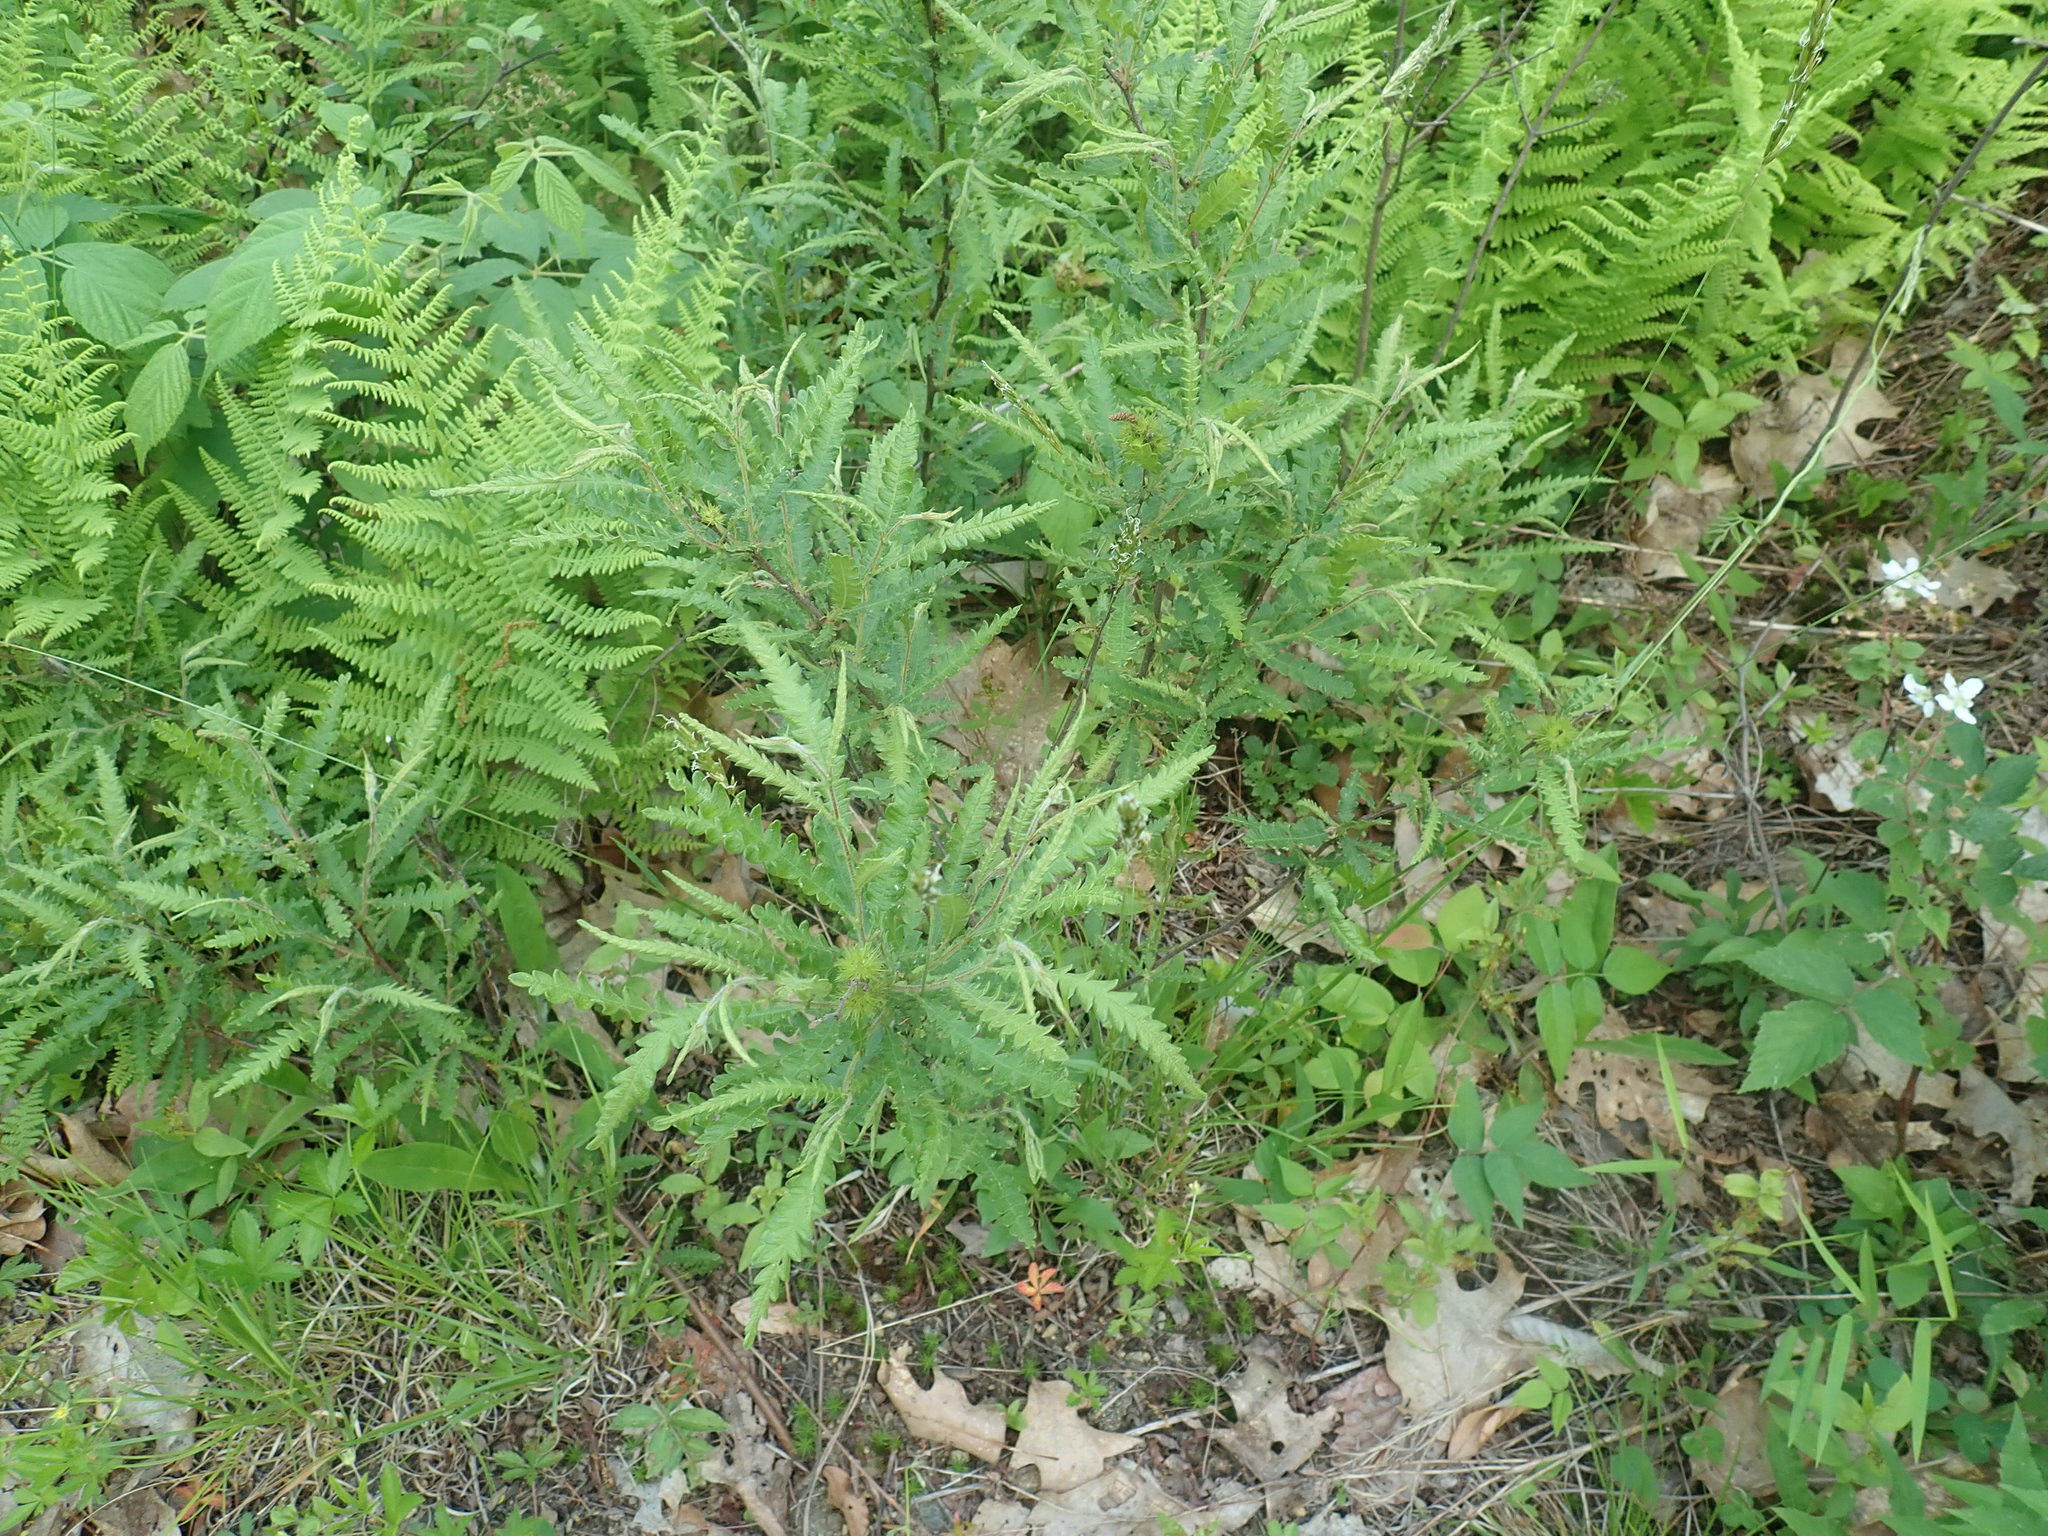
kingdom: Plantae
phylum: Tracheophyta
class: Magnoliopsida
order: Fagales
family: Myricaceae
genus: Comptonia
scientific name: Comptonia peregrina
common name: Sweet-fern
